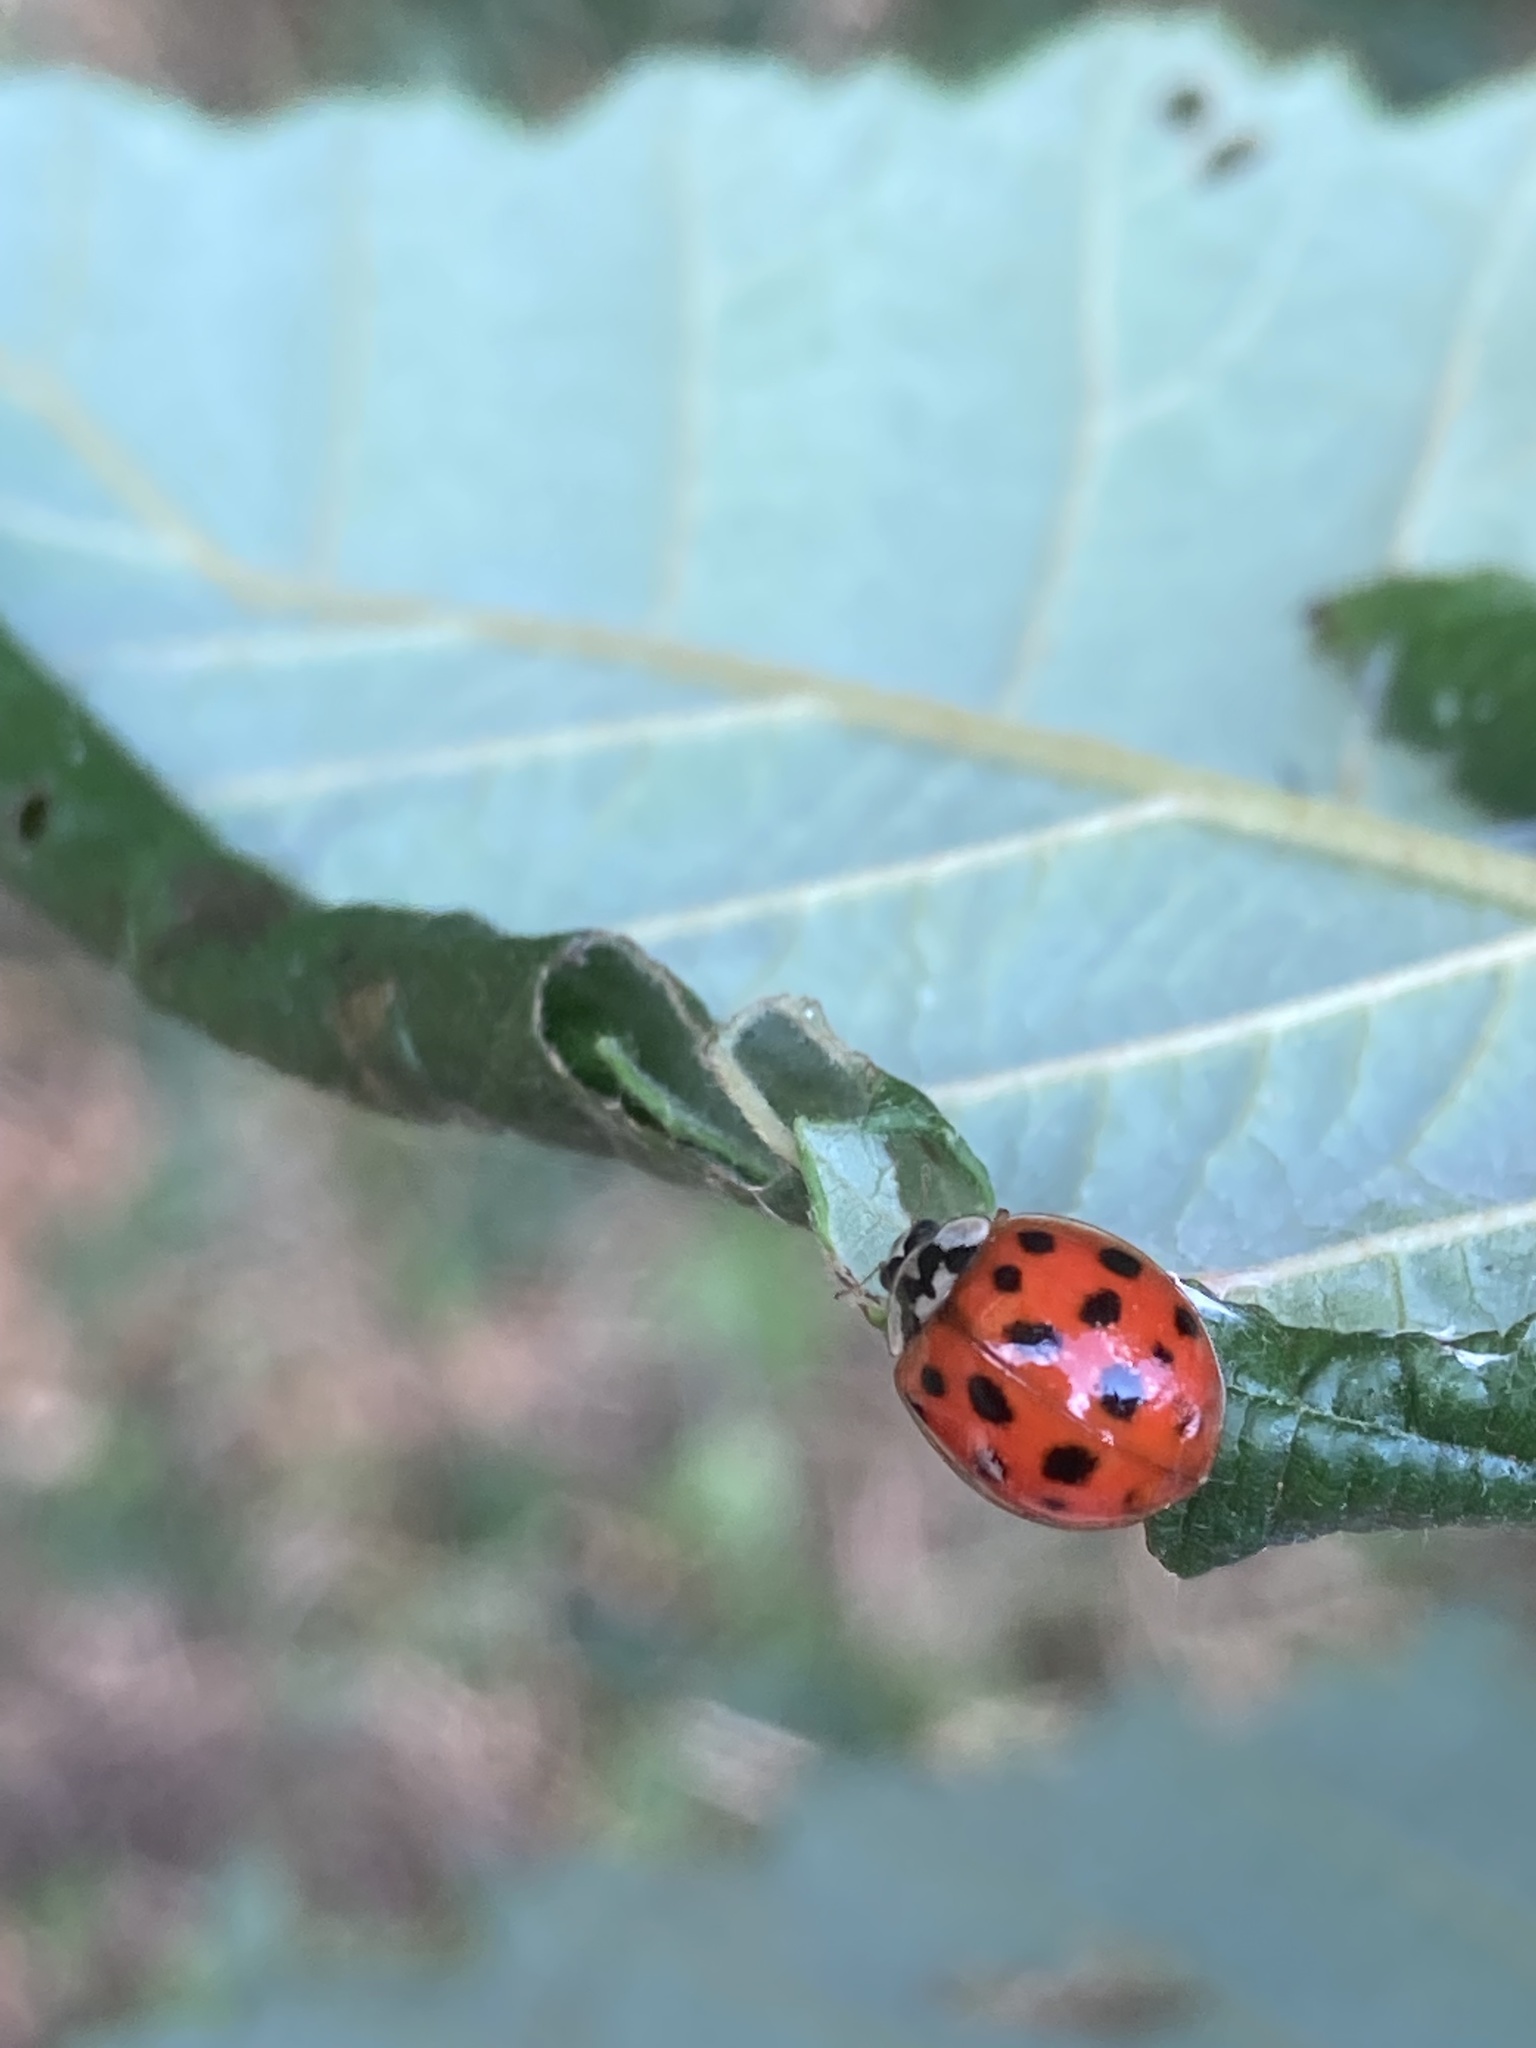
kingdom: Animalia
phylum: Arthropoda
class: Insecta
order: Coleoptera
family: Coccinellidae
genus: Harmonia
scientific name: Harmonia axyridis
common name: Harlequin ladybird
